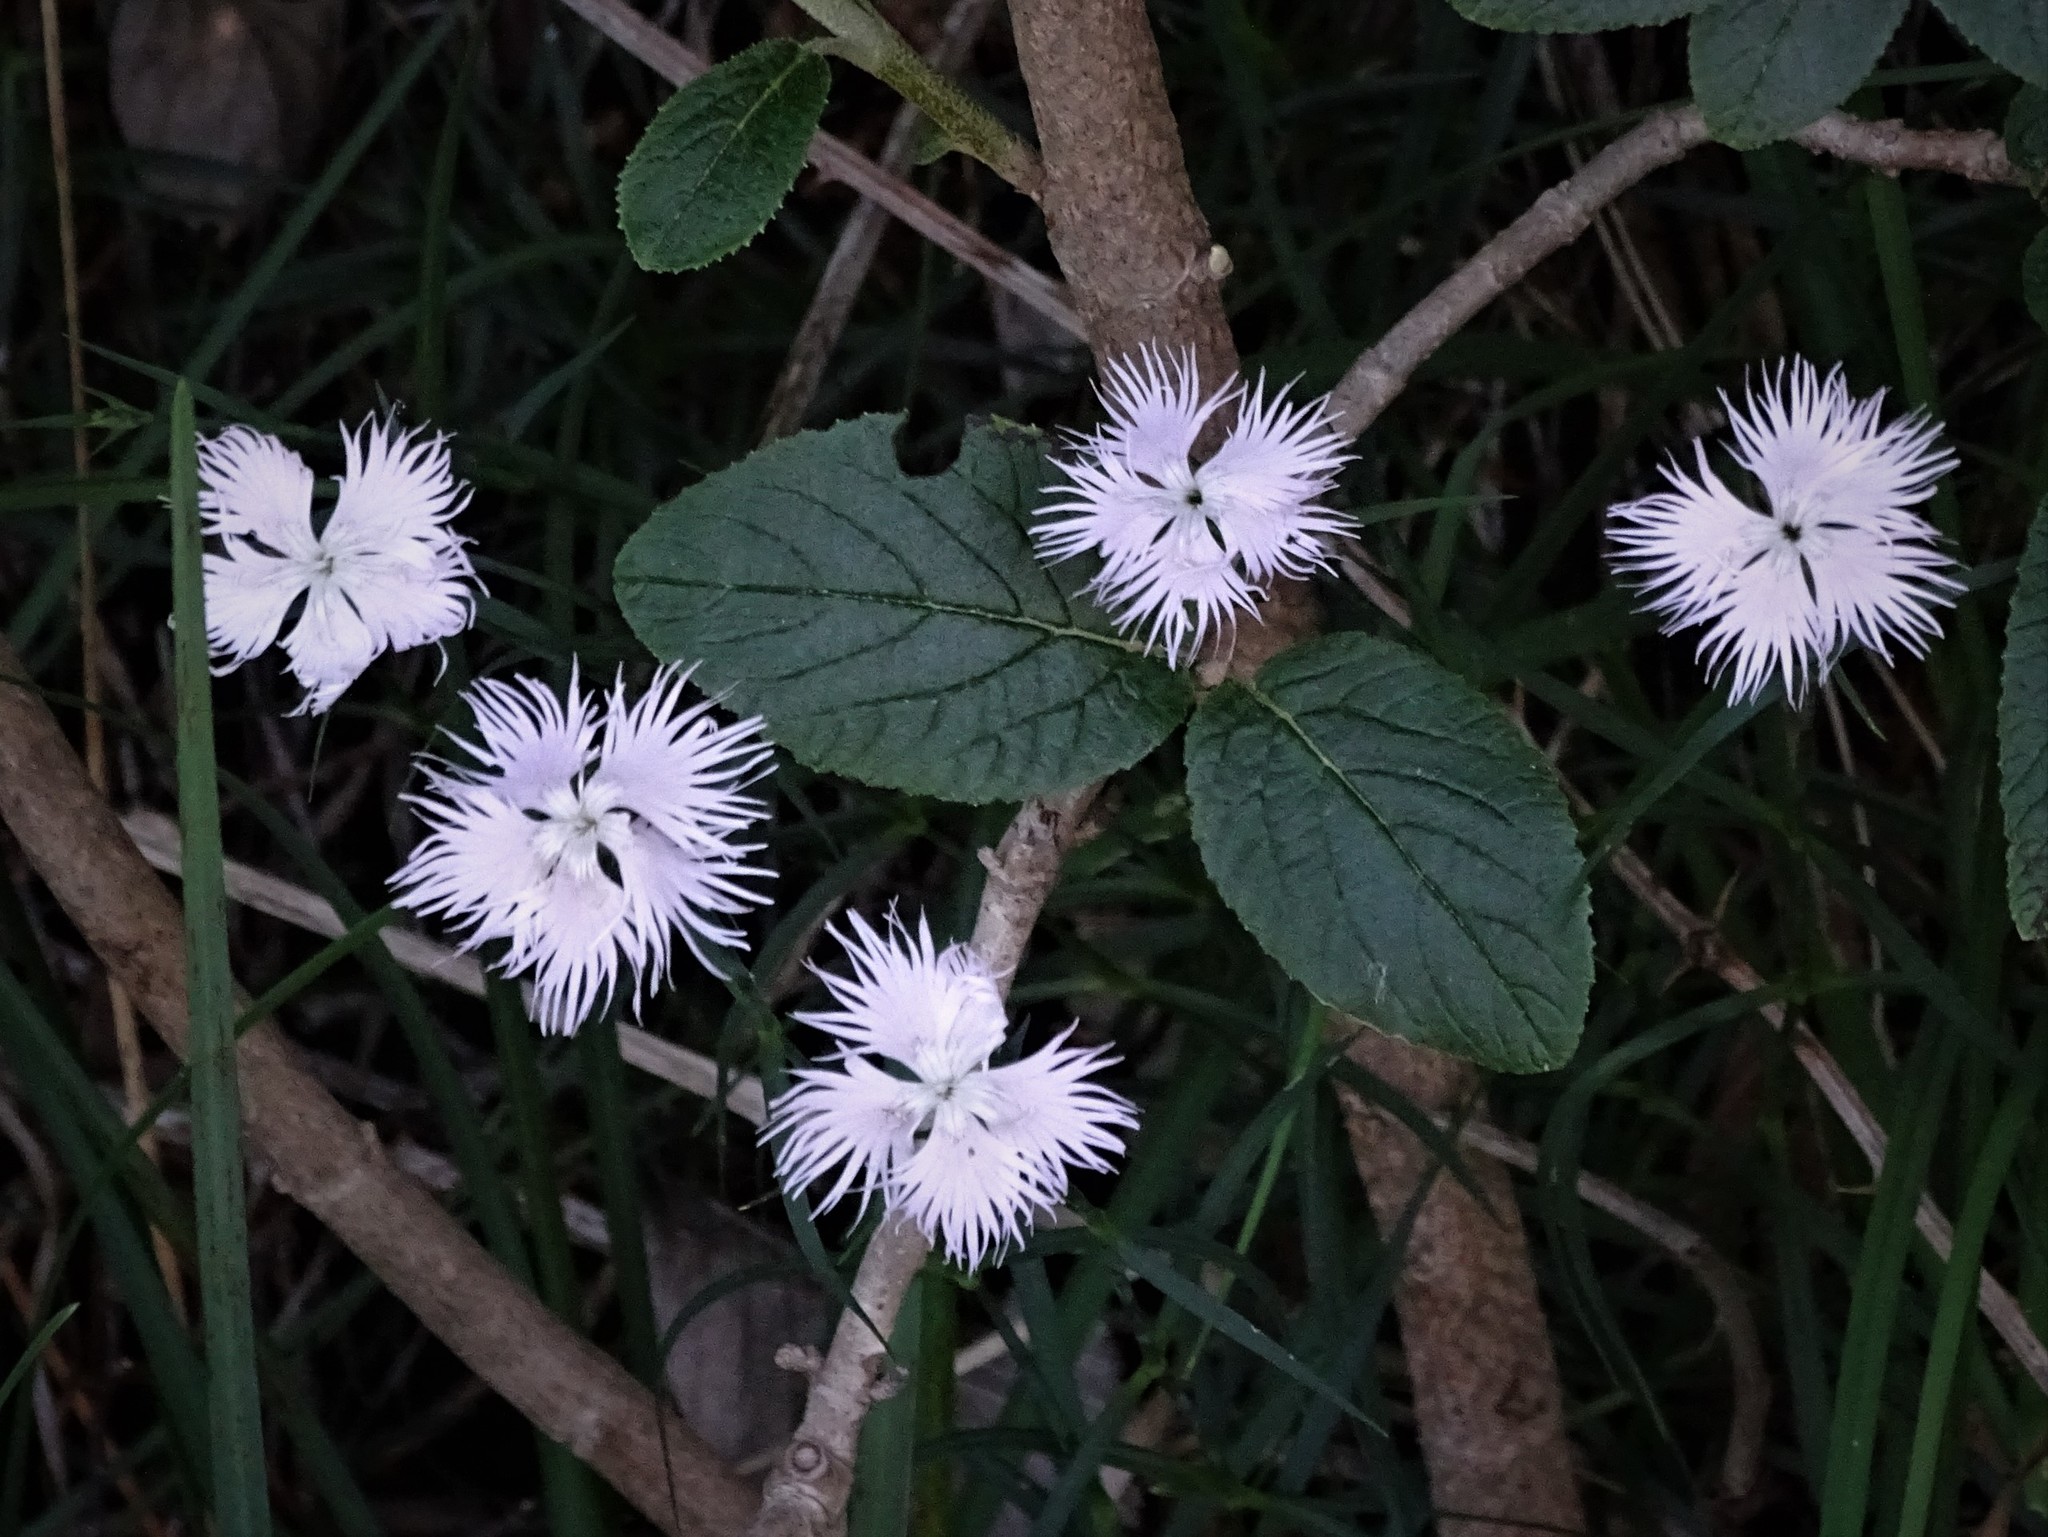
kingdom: Plantae
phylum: Tracheophyta
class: Magnoliopsida
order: Caryophyllales
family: Caryophyllaceae
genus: Dianthus
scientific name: Dianthus hyssopifolius
